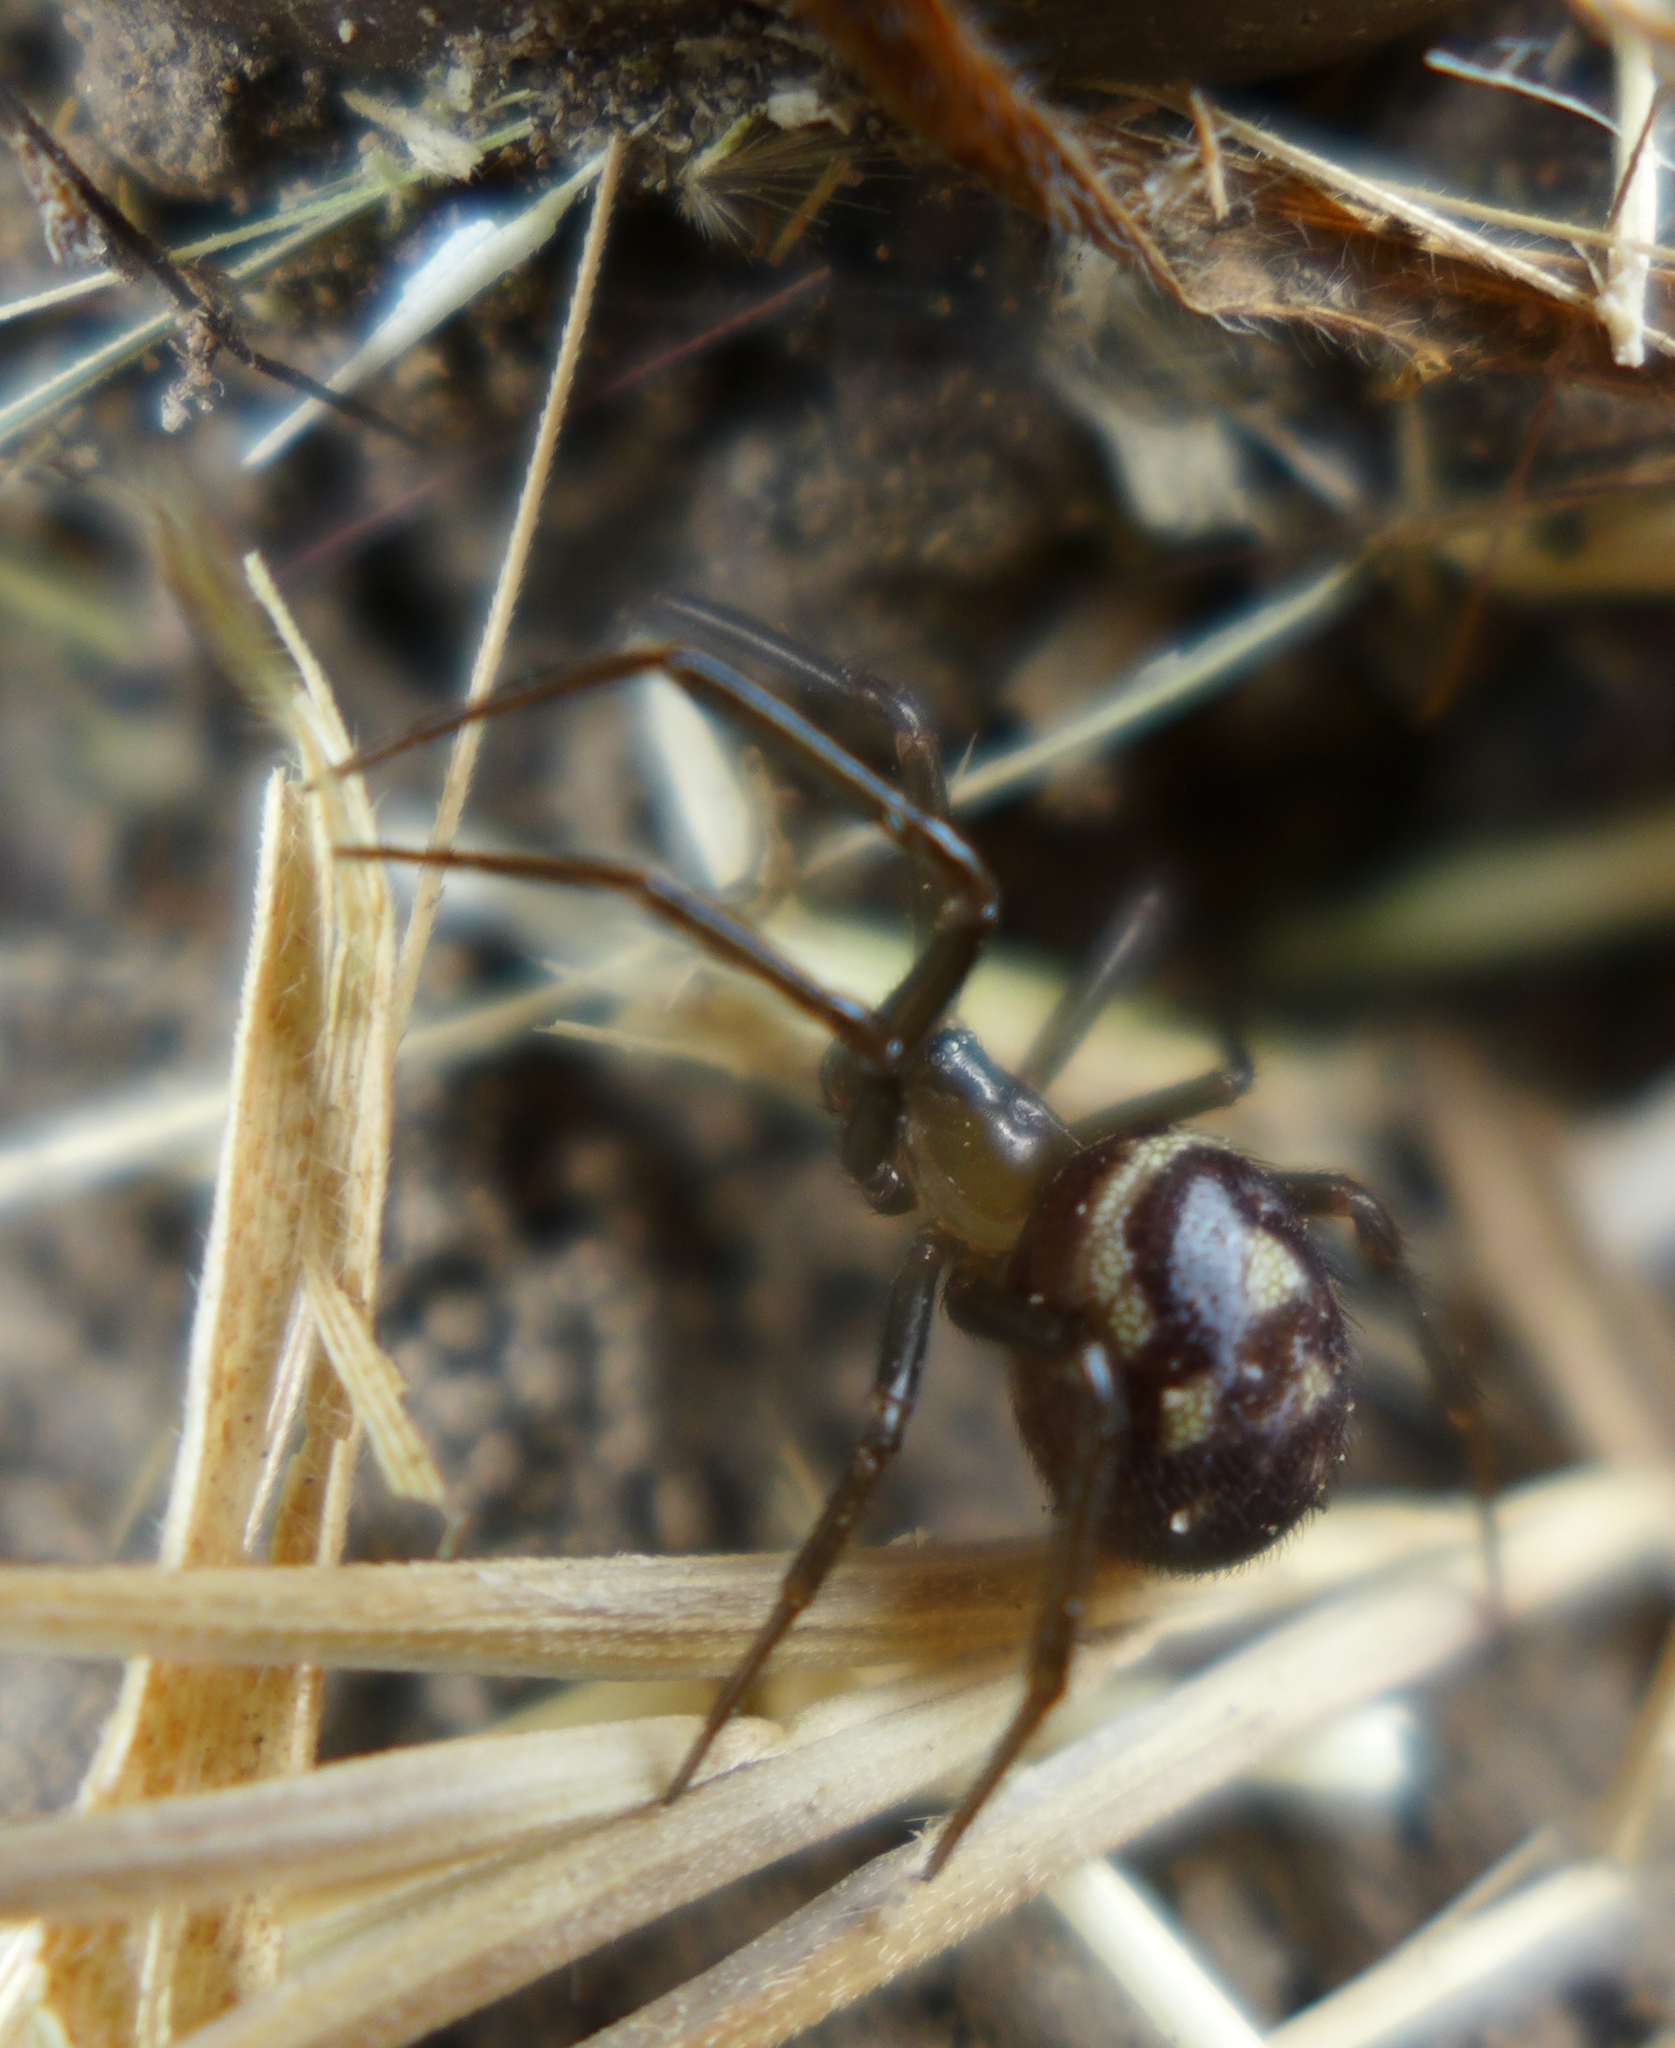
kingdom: Animalia
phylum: Arthropoda
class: Arachnida
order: Araneae
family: Theridiidae
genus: Steatoda
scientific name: Steatoda grossa
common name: False black widow
